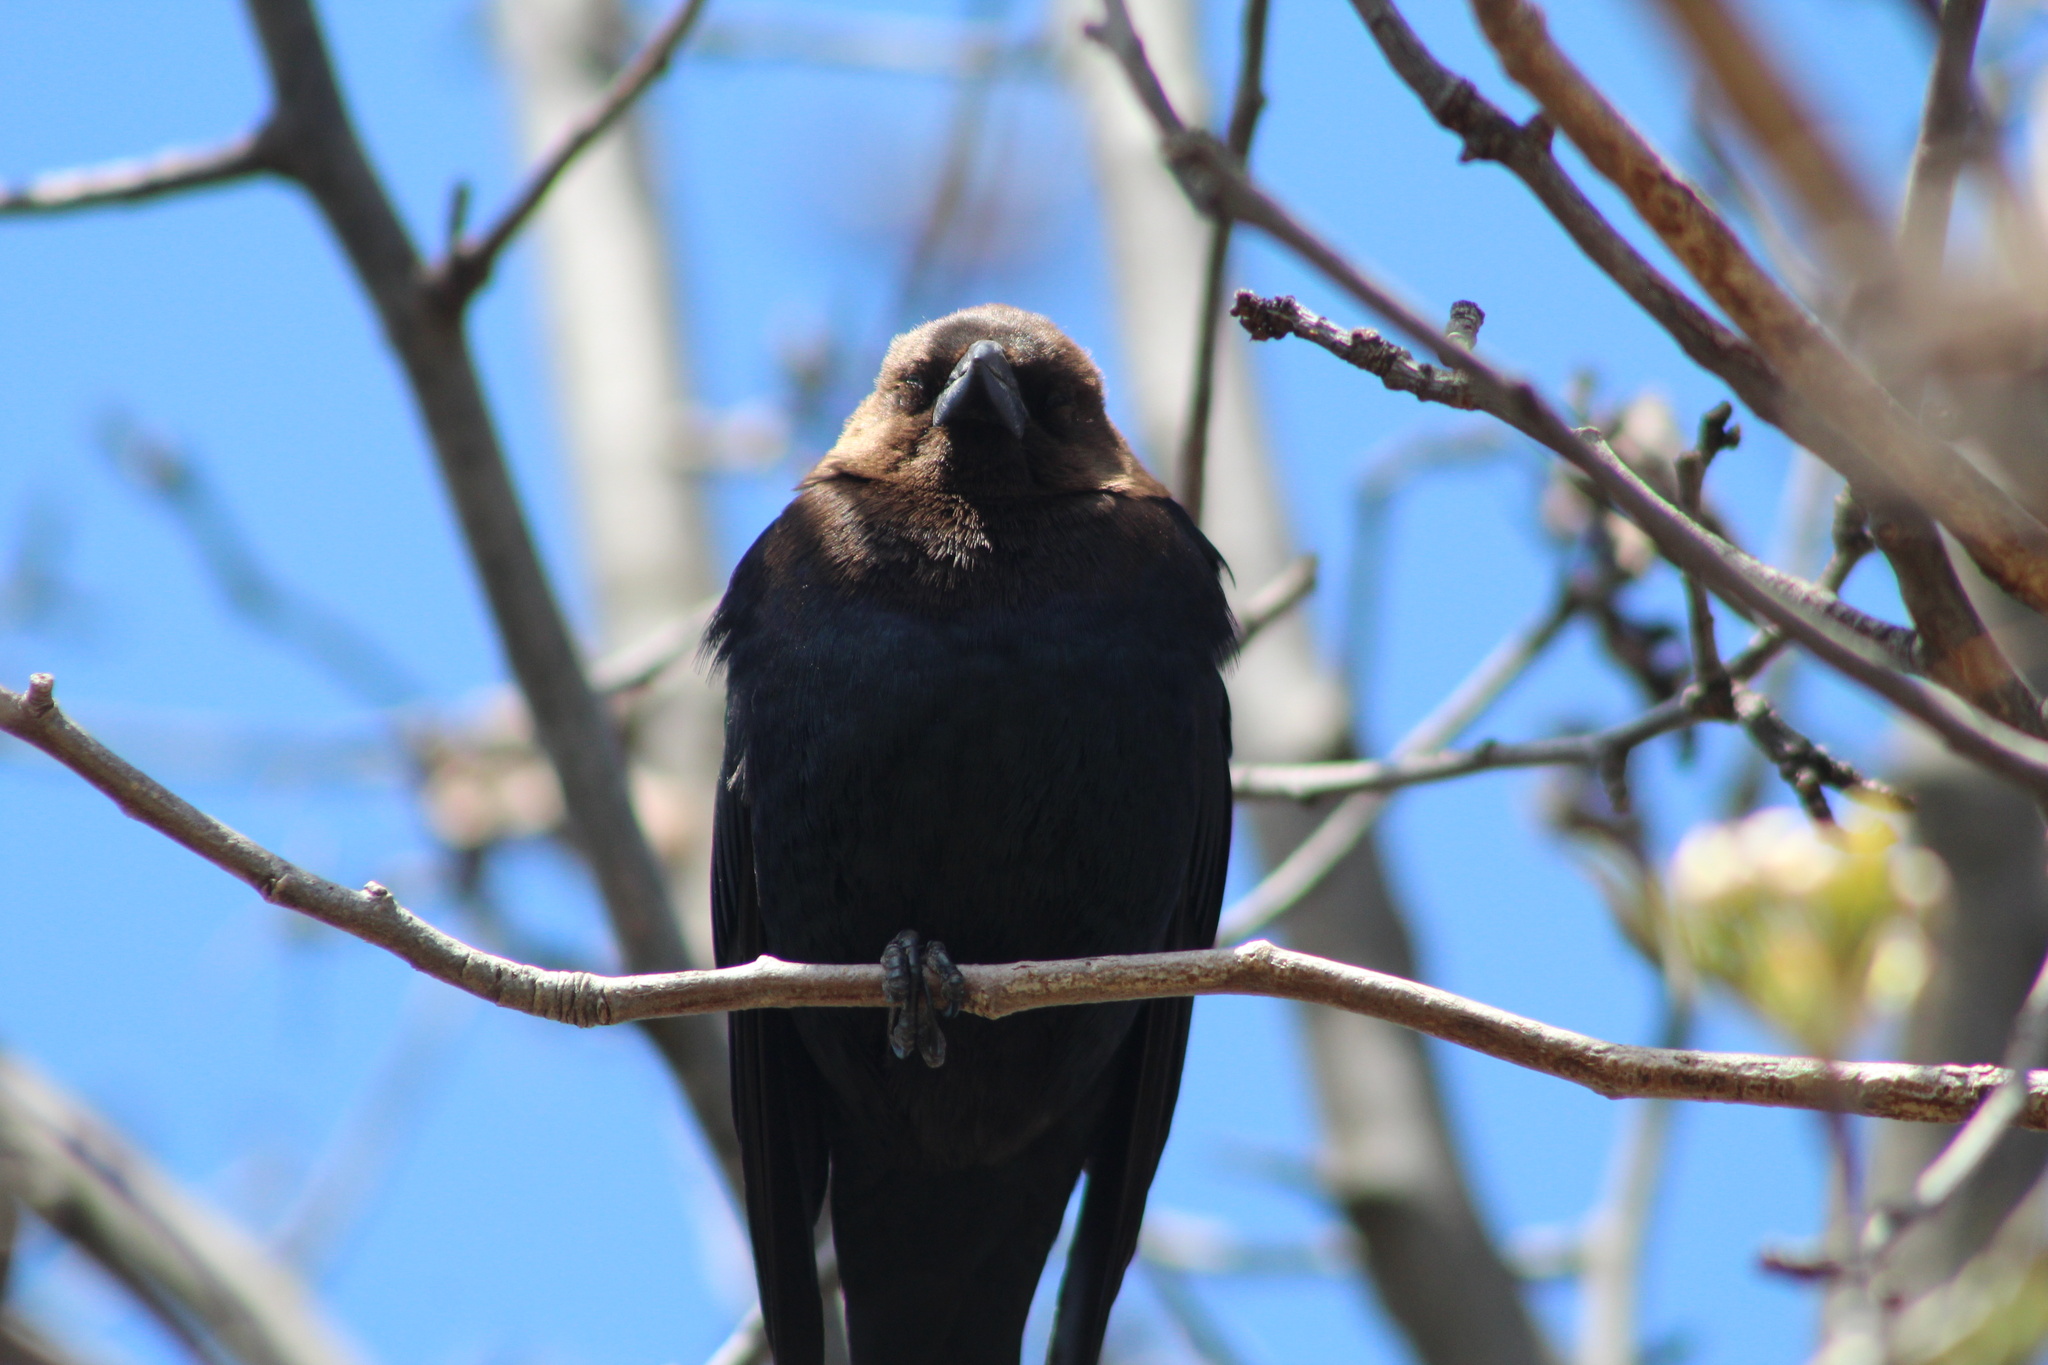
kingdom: Animalia
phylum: Chordata
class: Aves
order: Passeriformes
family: Icteridae
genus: Molothrus
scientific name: Molothrus ater
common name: Brown-headed cowbird
